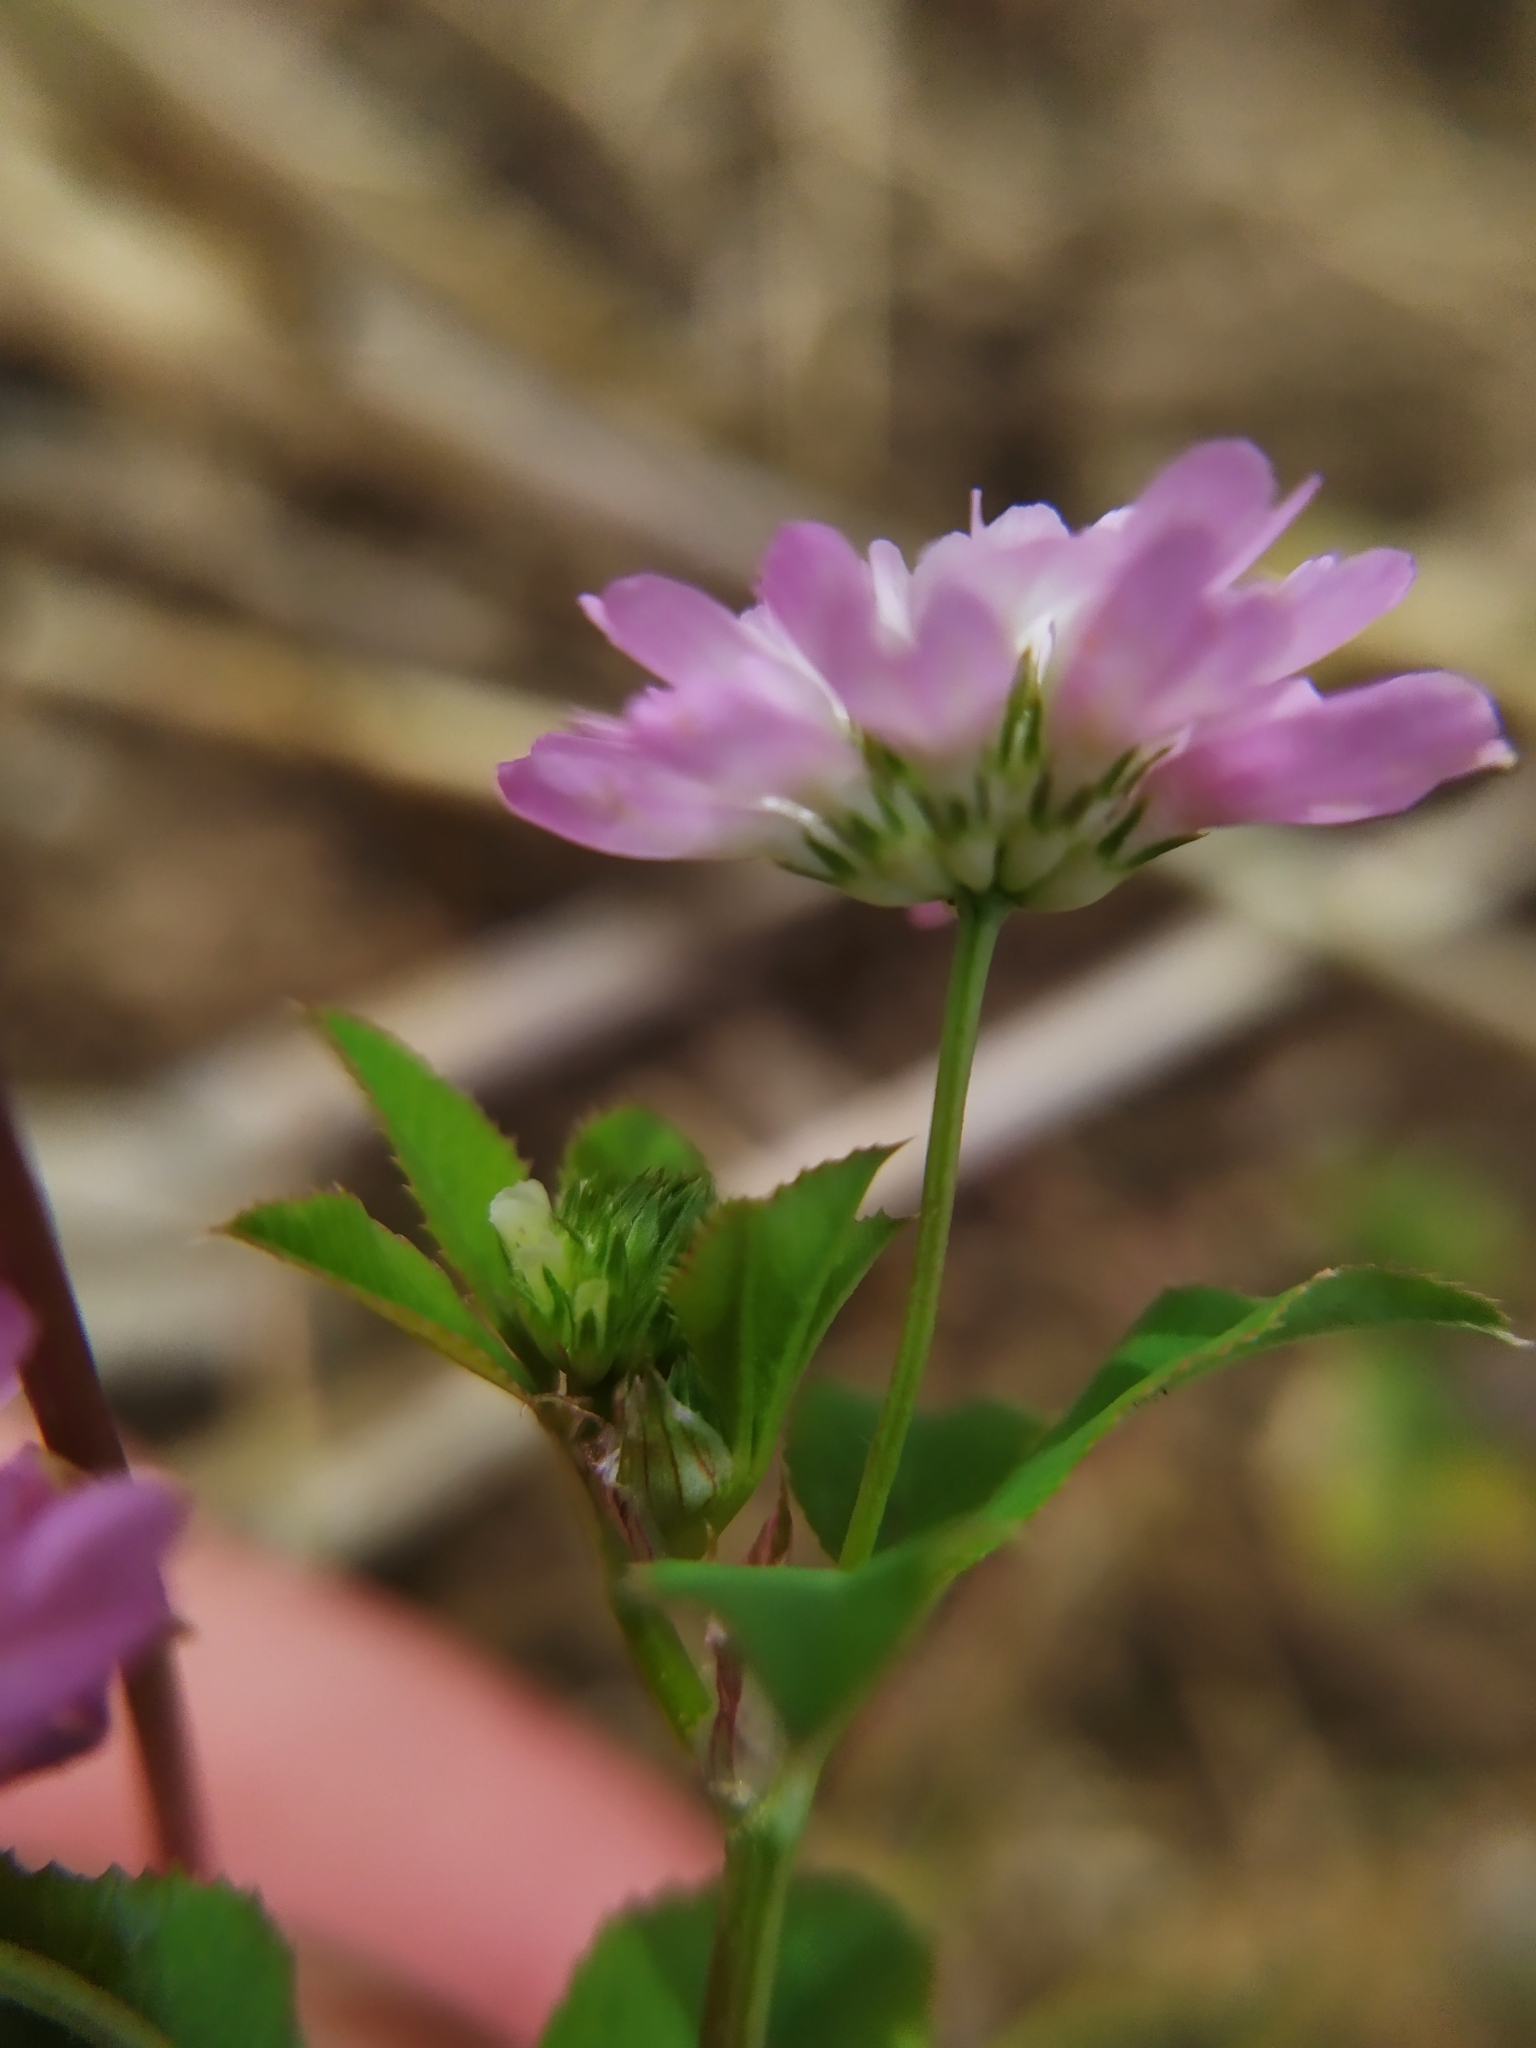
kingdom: Plantae
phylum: Tracheophyta
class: Magnoliopsida
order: Fabales
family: Fabaceae
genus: Trifolium
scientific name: Trifolium resupinatum
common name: Reversed clover
